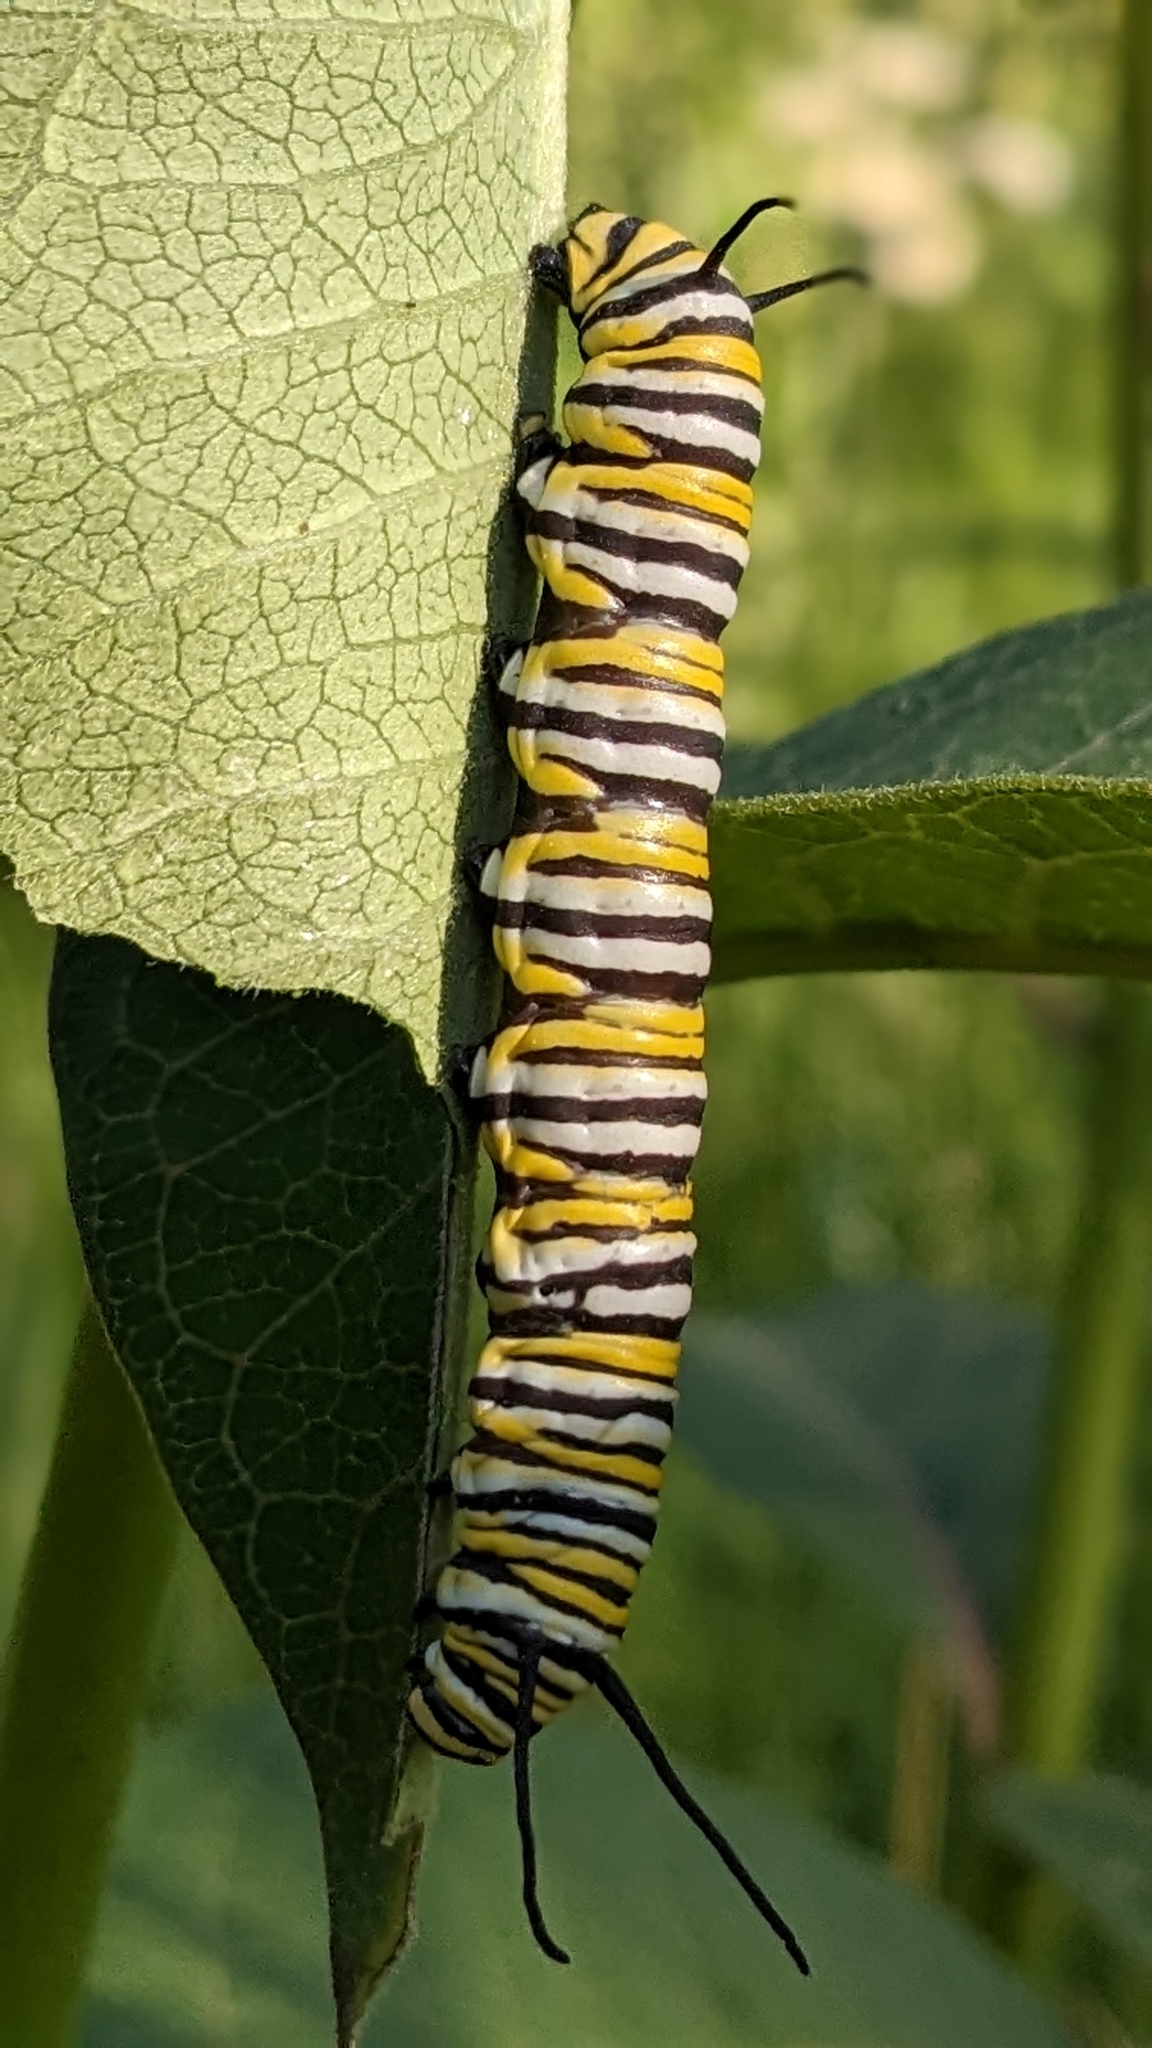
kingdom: Animalia
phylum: Arthropoda
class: Insecta
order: Lepidoptera
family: Nymphalidae
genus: Danaus
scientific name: Danaus plexippus
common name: Monarch
